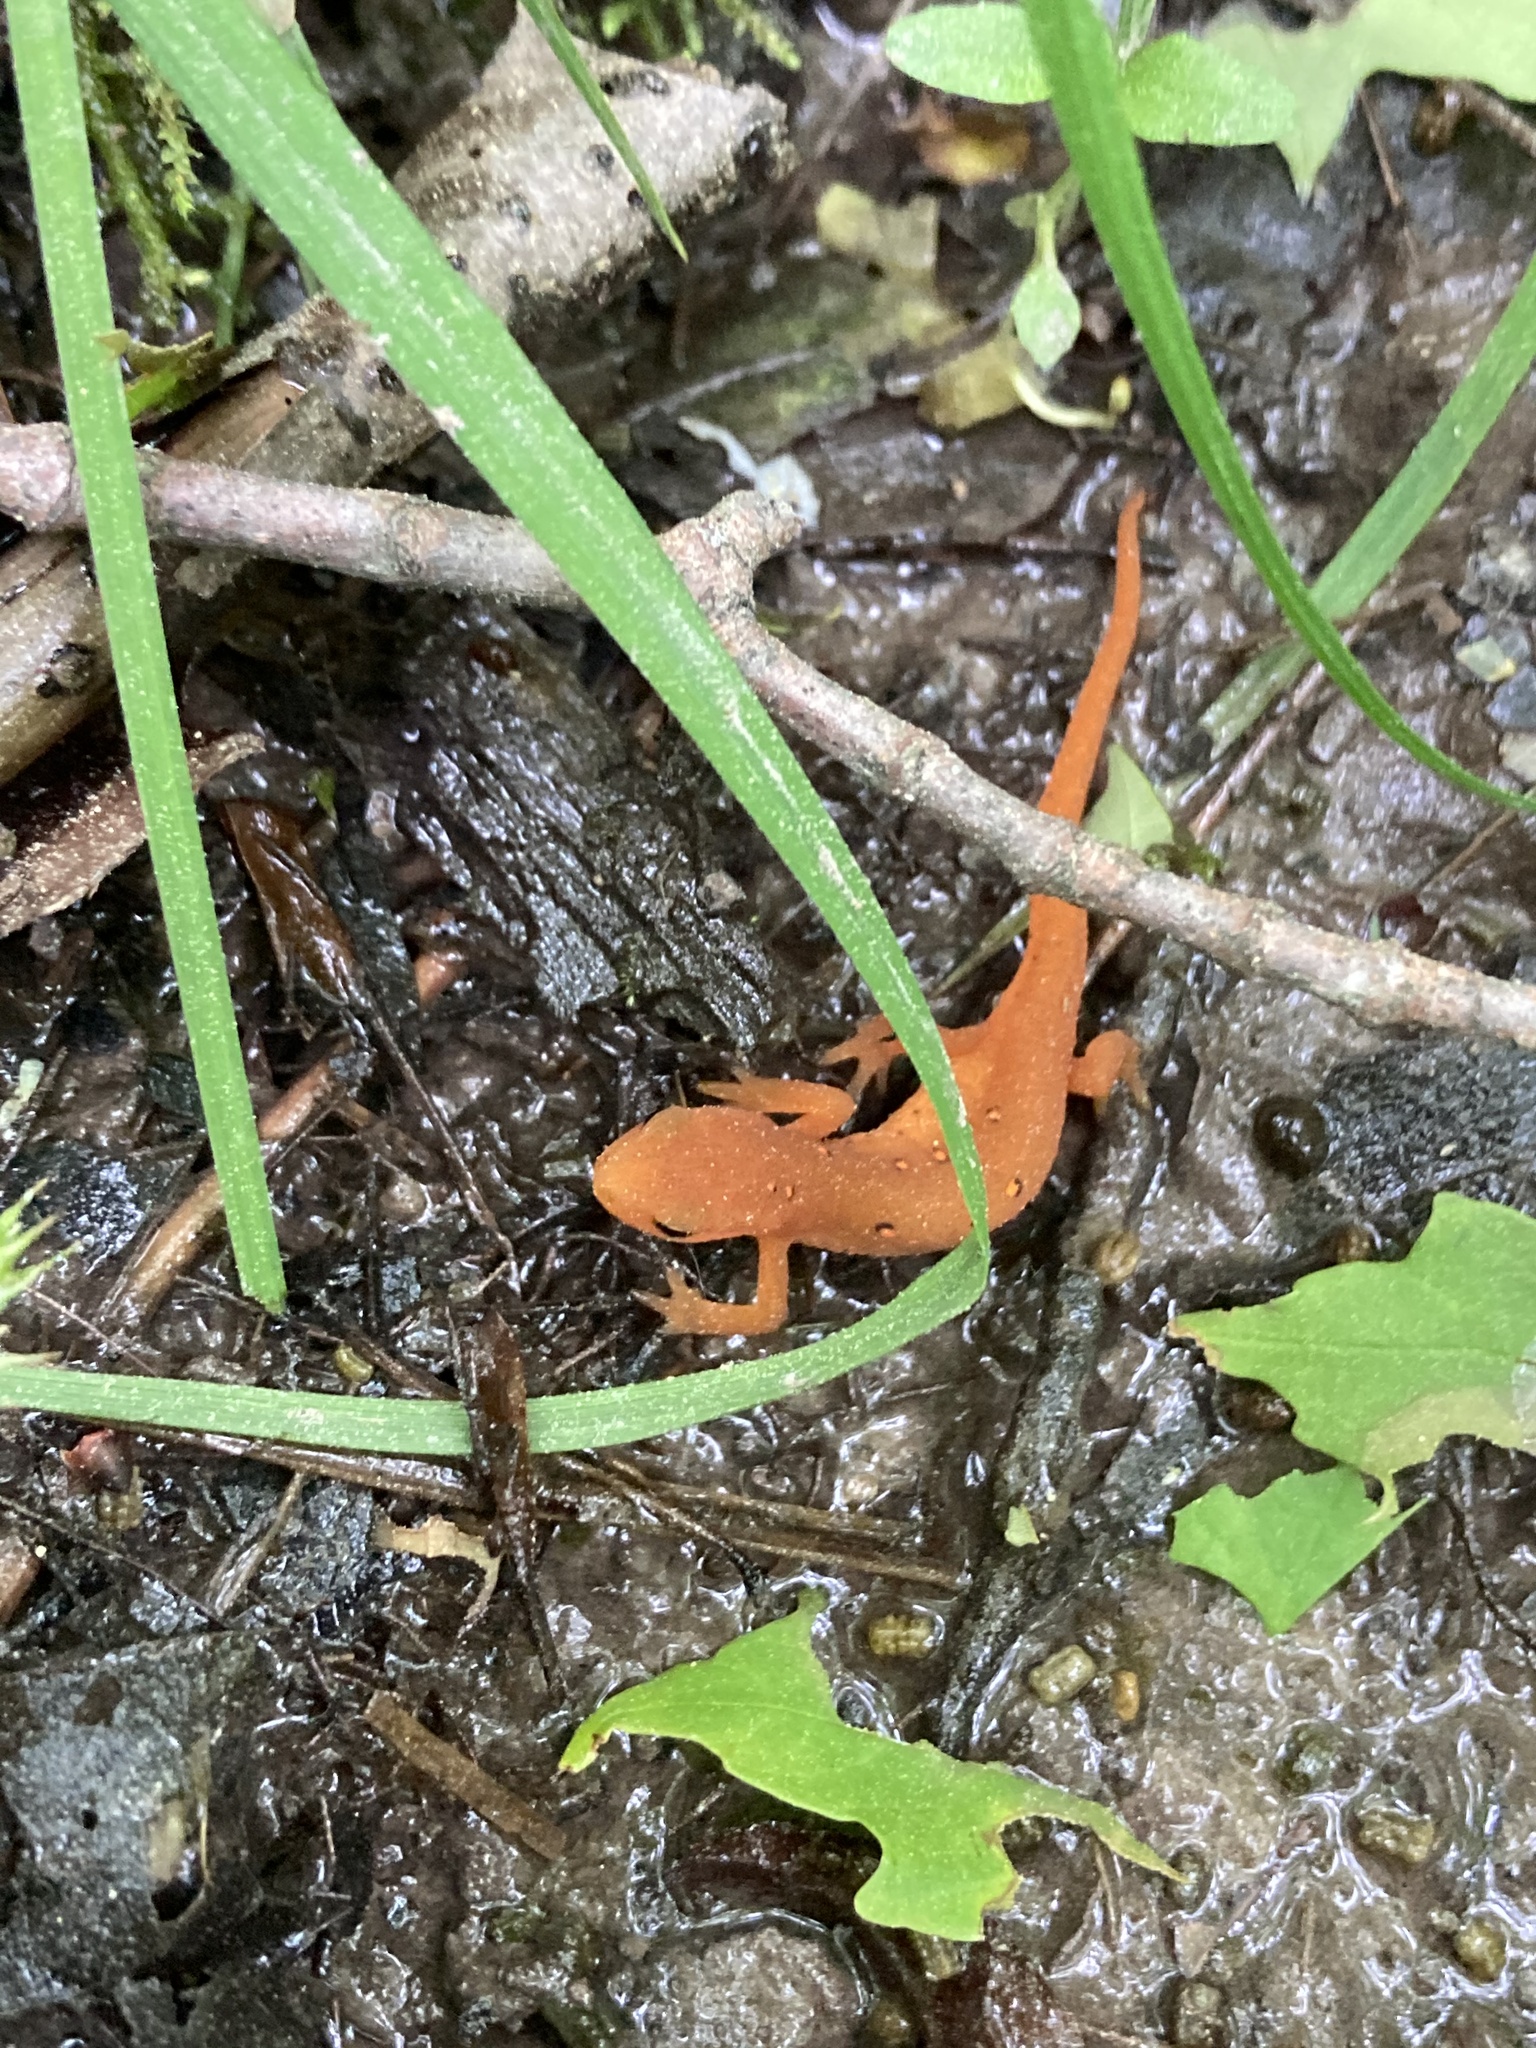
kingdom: Animalia
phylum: Chordata
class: Amphibia
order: Caudata
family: Salamandridae
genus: Notophthalmus
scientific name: Notophthalmus viridescens
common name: Eastern newt
